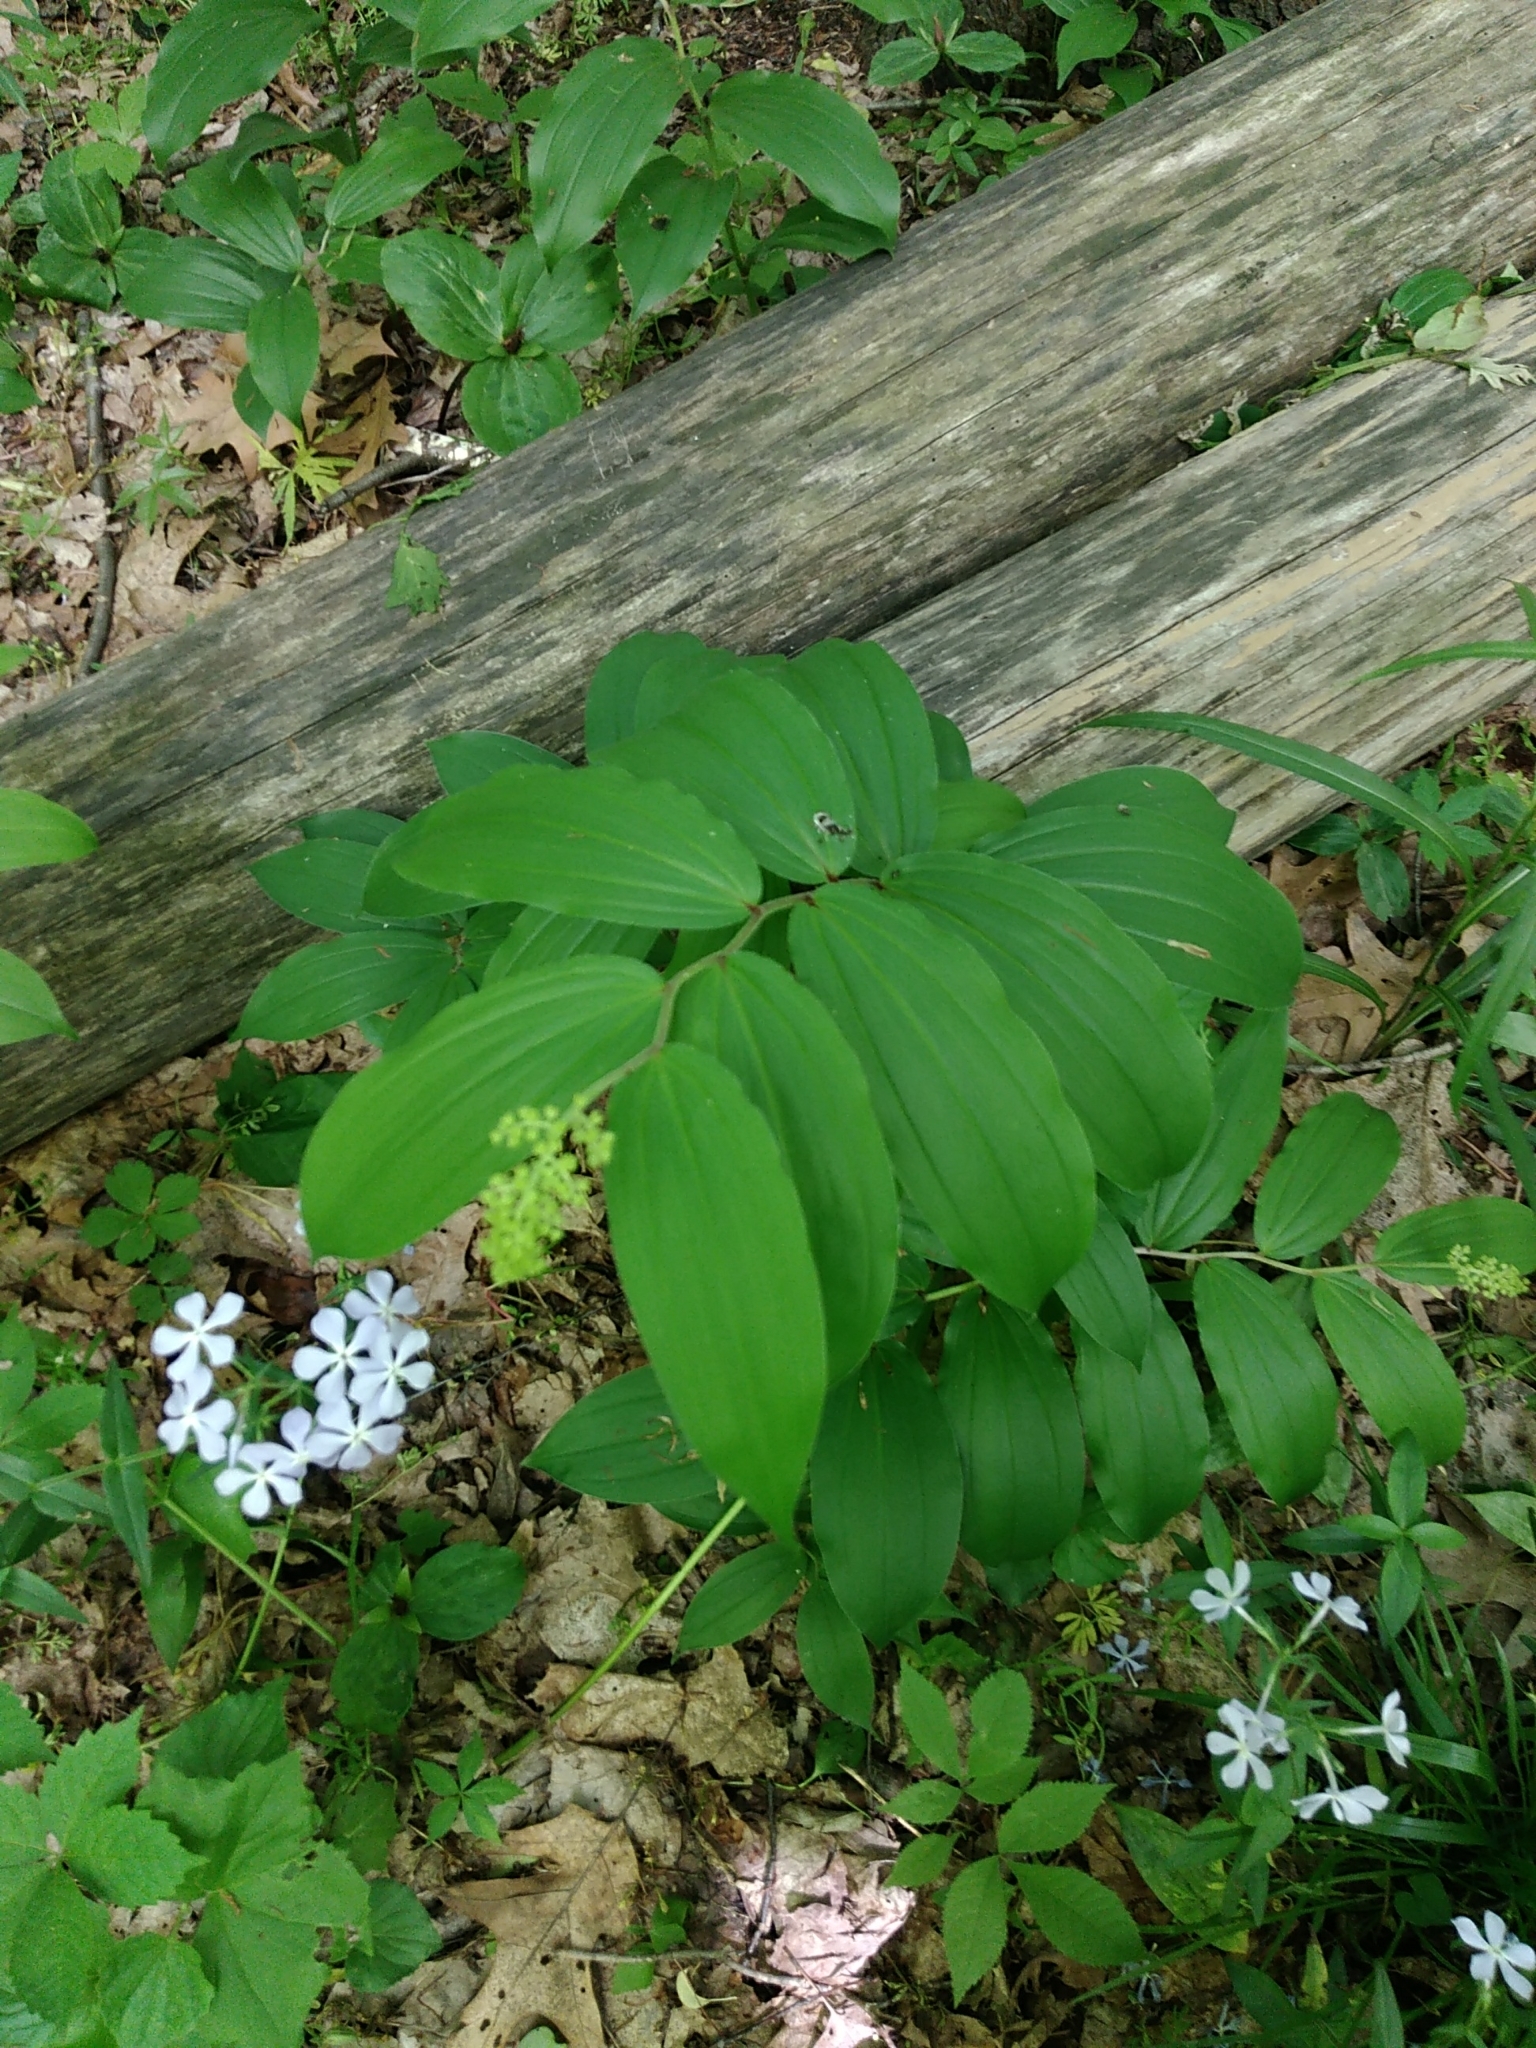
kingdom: Plantae
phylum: Tracheophyta
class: Liliopsida
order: Asparagales
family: Asparagaceae
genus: Maianthemum
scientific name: Maianthemum racemosum
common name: False spikenard
